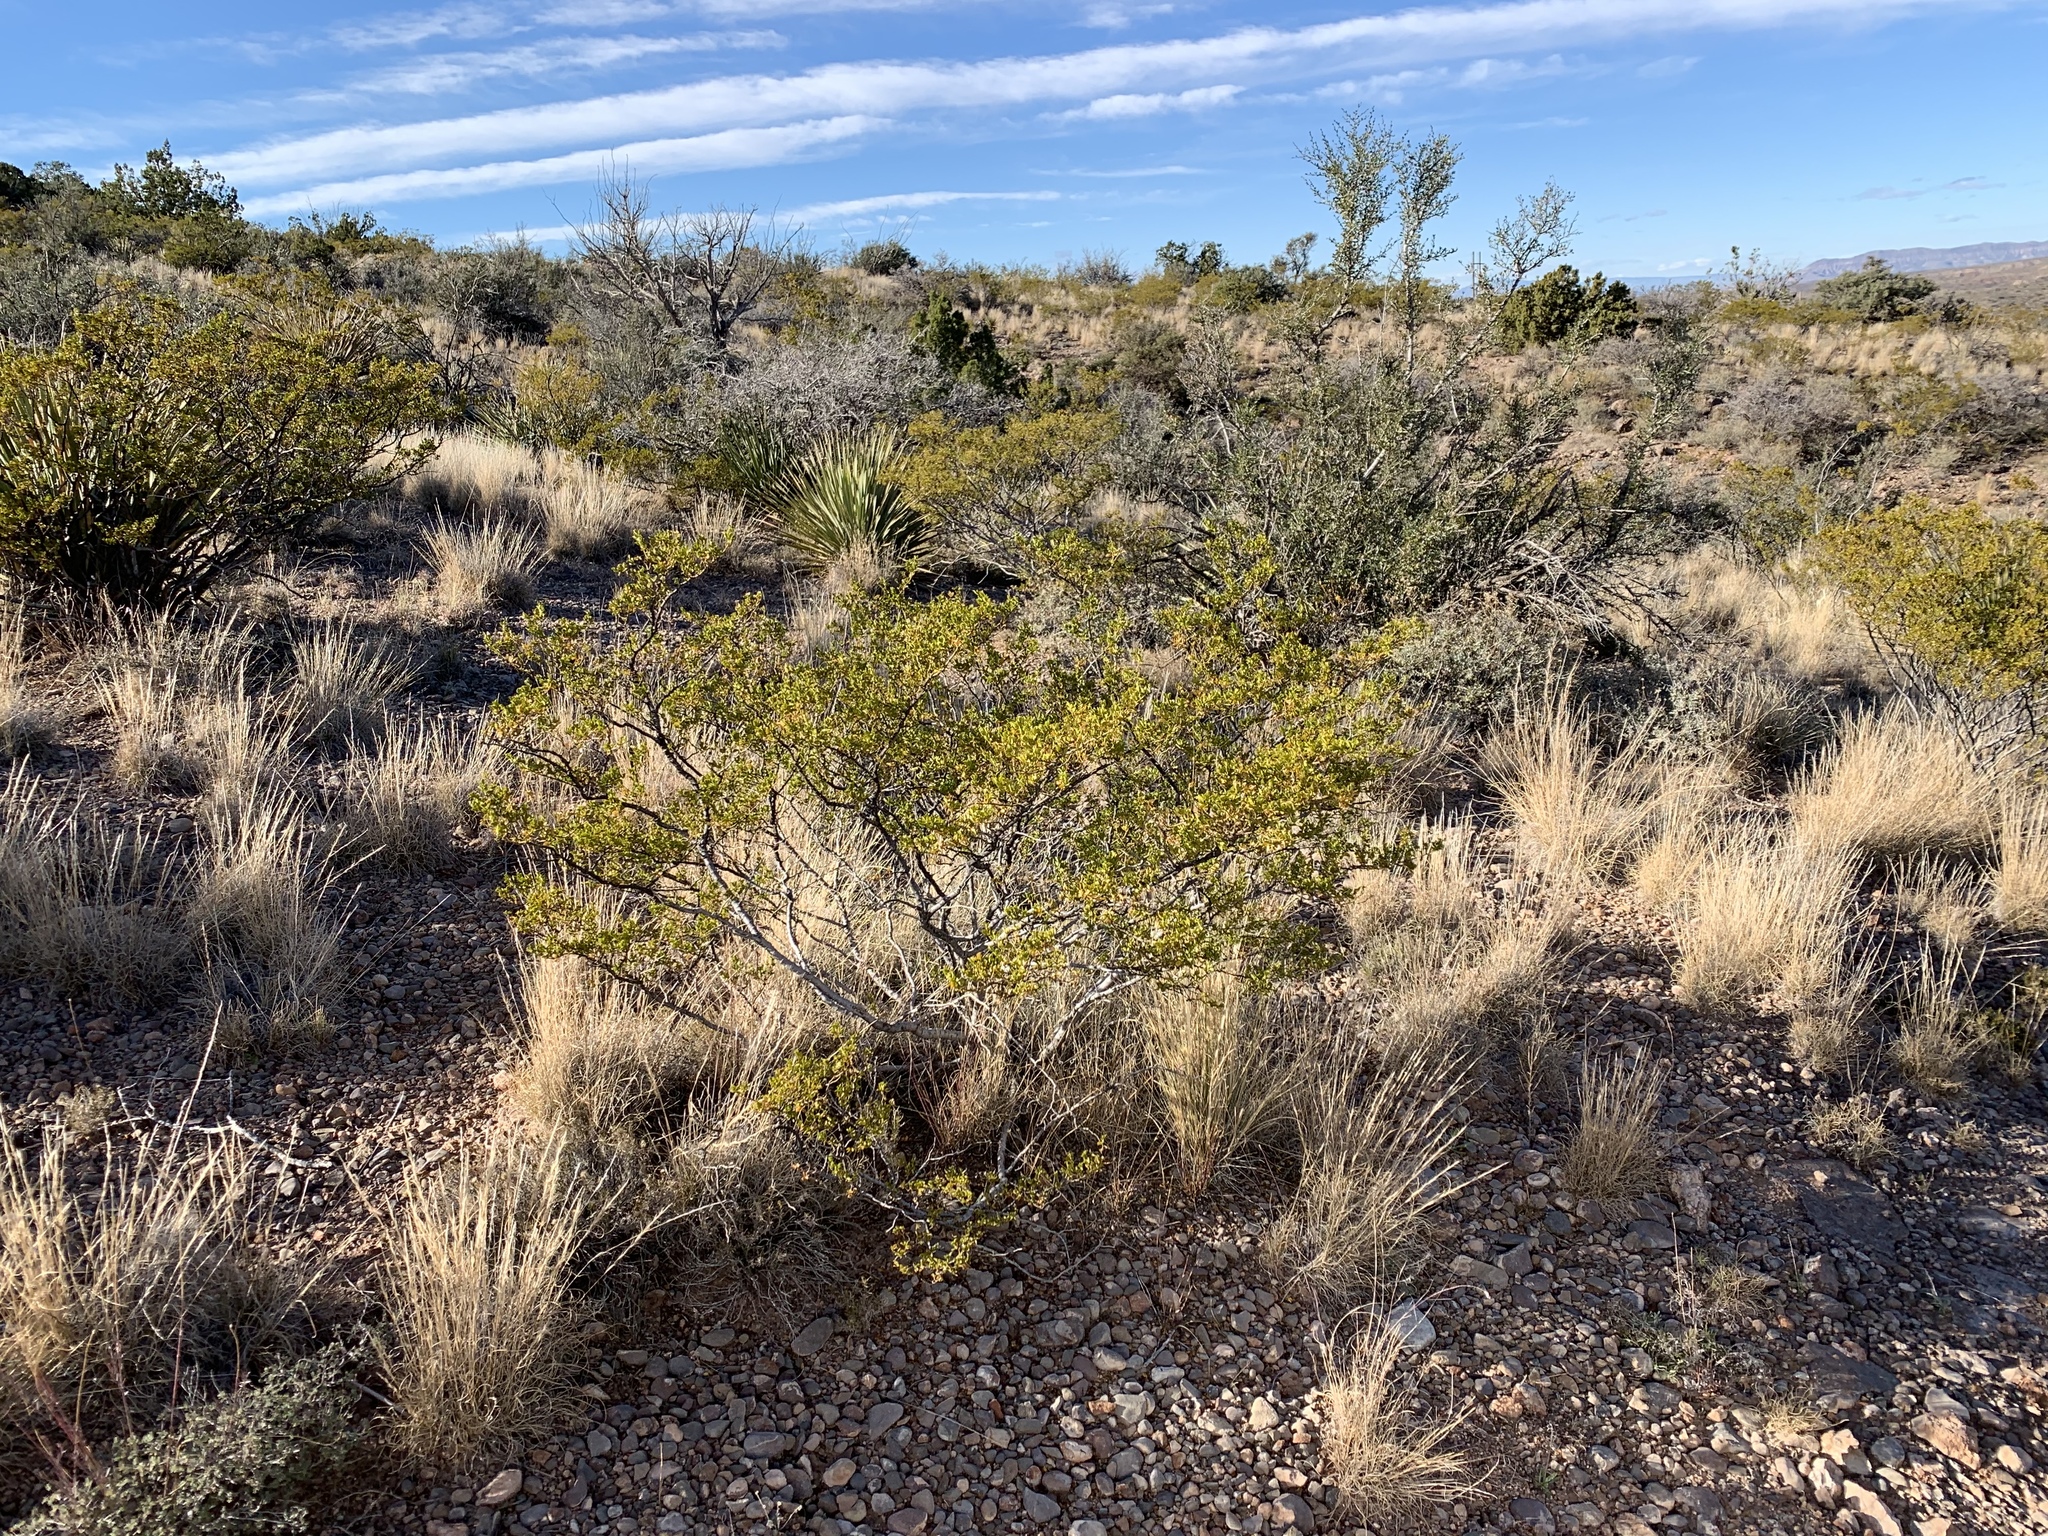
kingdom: Plantae
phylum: Tracheophyta
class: Magnoliopsida
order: Zygophyllales
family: Zygophyllaceae
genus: Larrea
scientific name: Larrea tridentata
